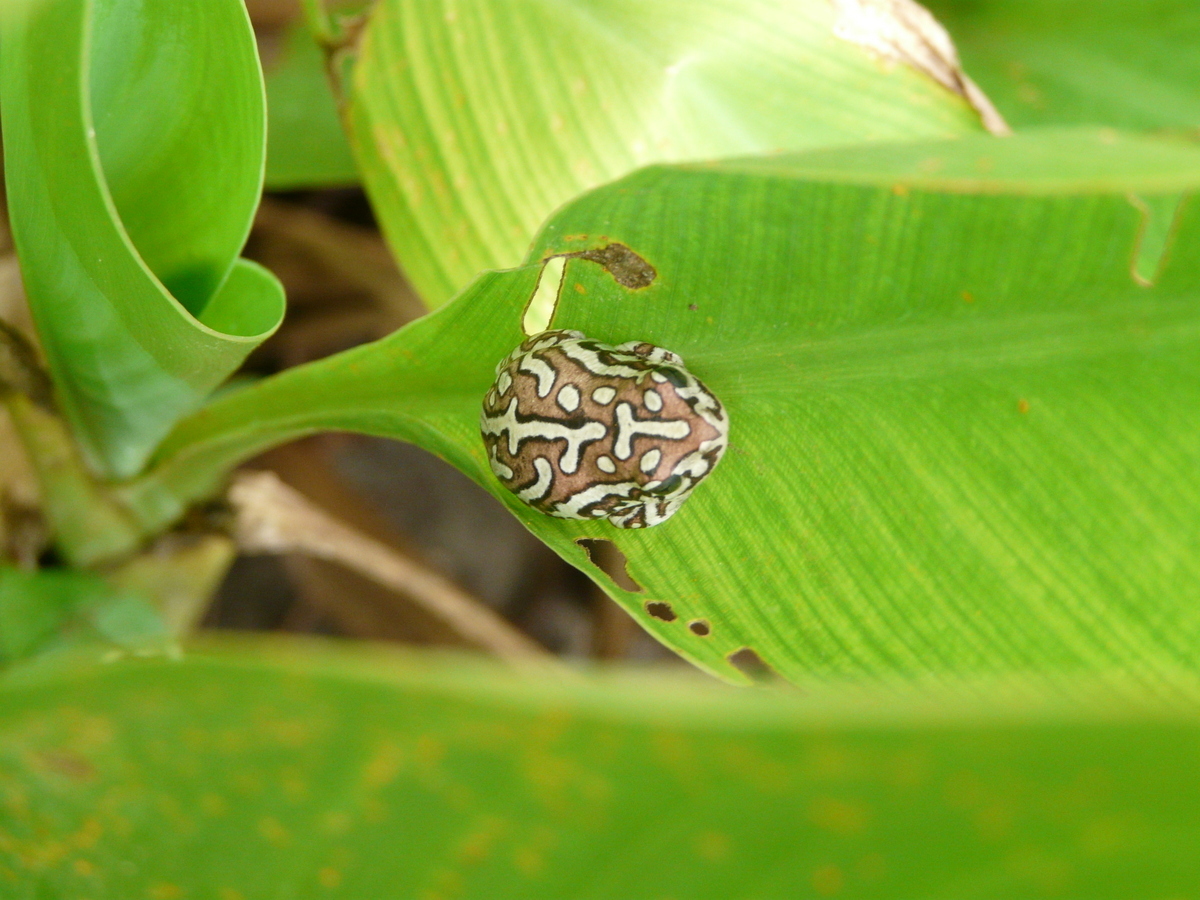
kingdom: Animalia
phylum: Chordata
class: Amphibia
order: Anura
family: Hyperoliidae
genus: Hyperolius
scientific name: Hyperolius parallelus
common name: Angolan reed frog
